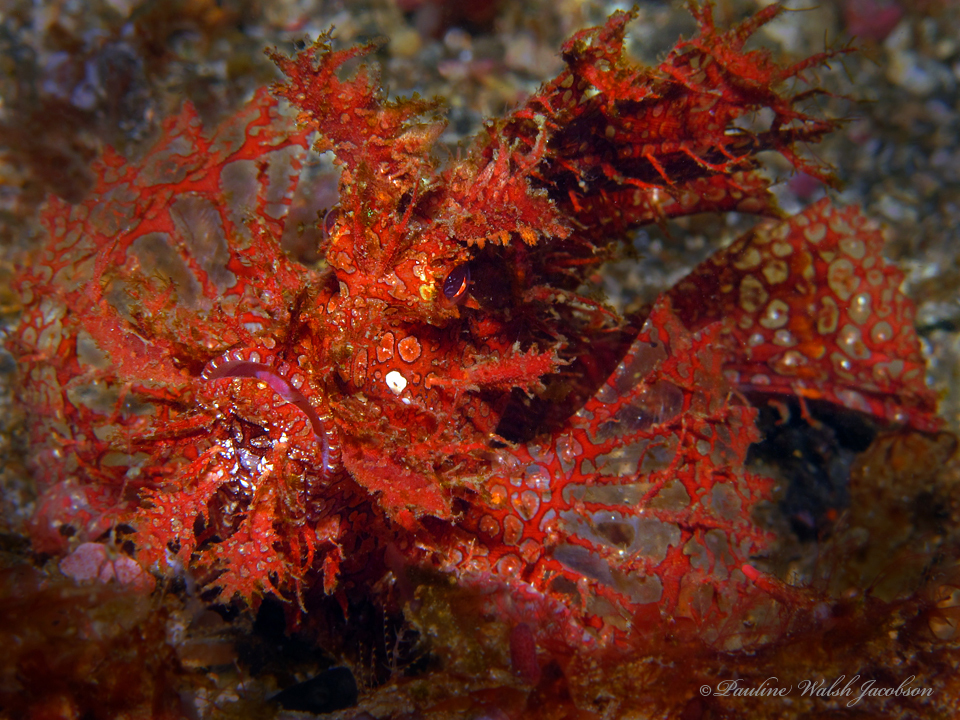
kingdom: Animalia
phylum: Chordata
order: Scorpaeniformes
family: Scorpaenidae
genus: Rhinopias
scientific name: Rhinopias frondosa
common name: Weedy scorpionfish
